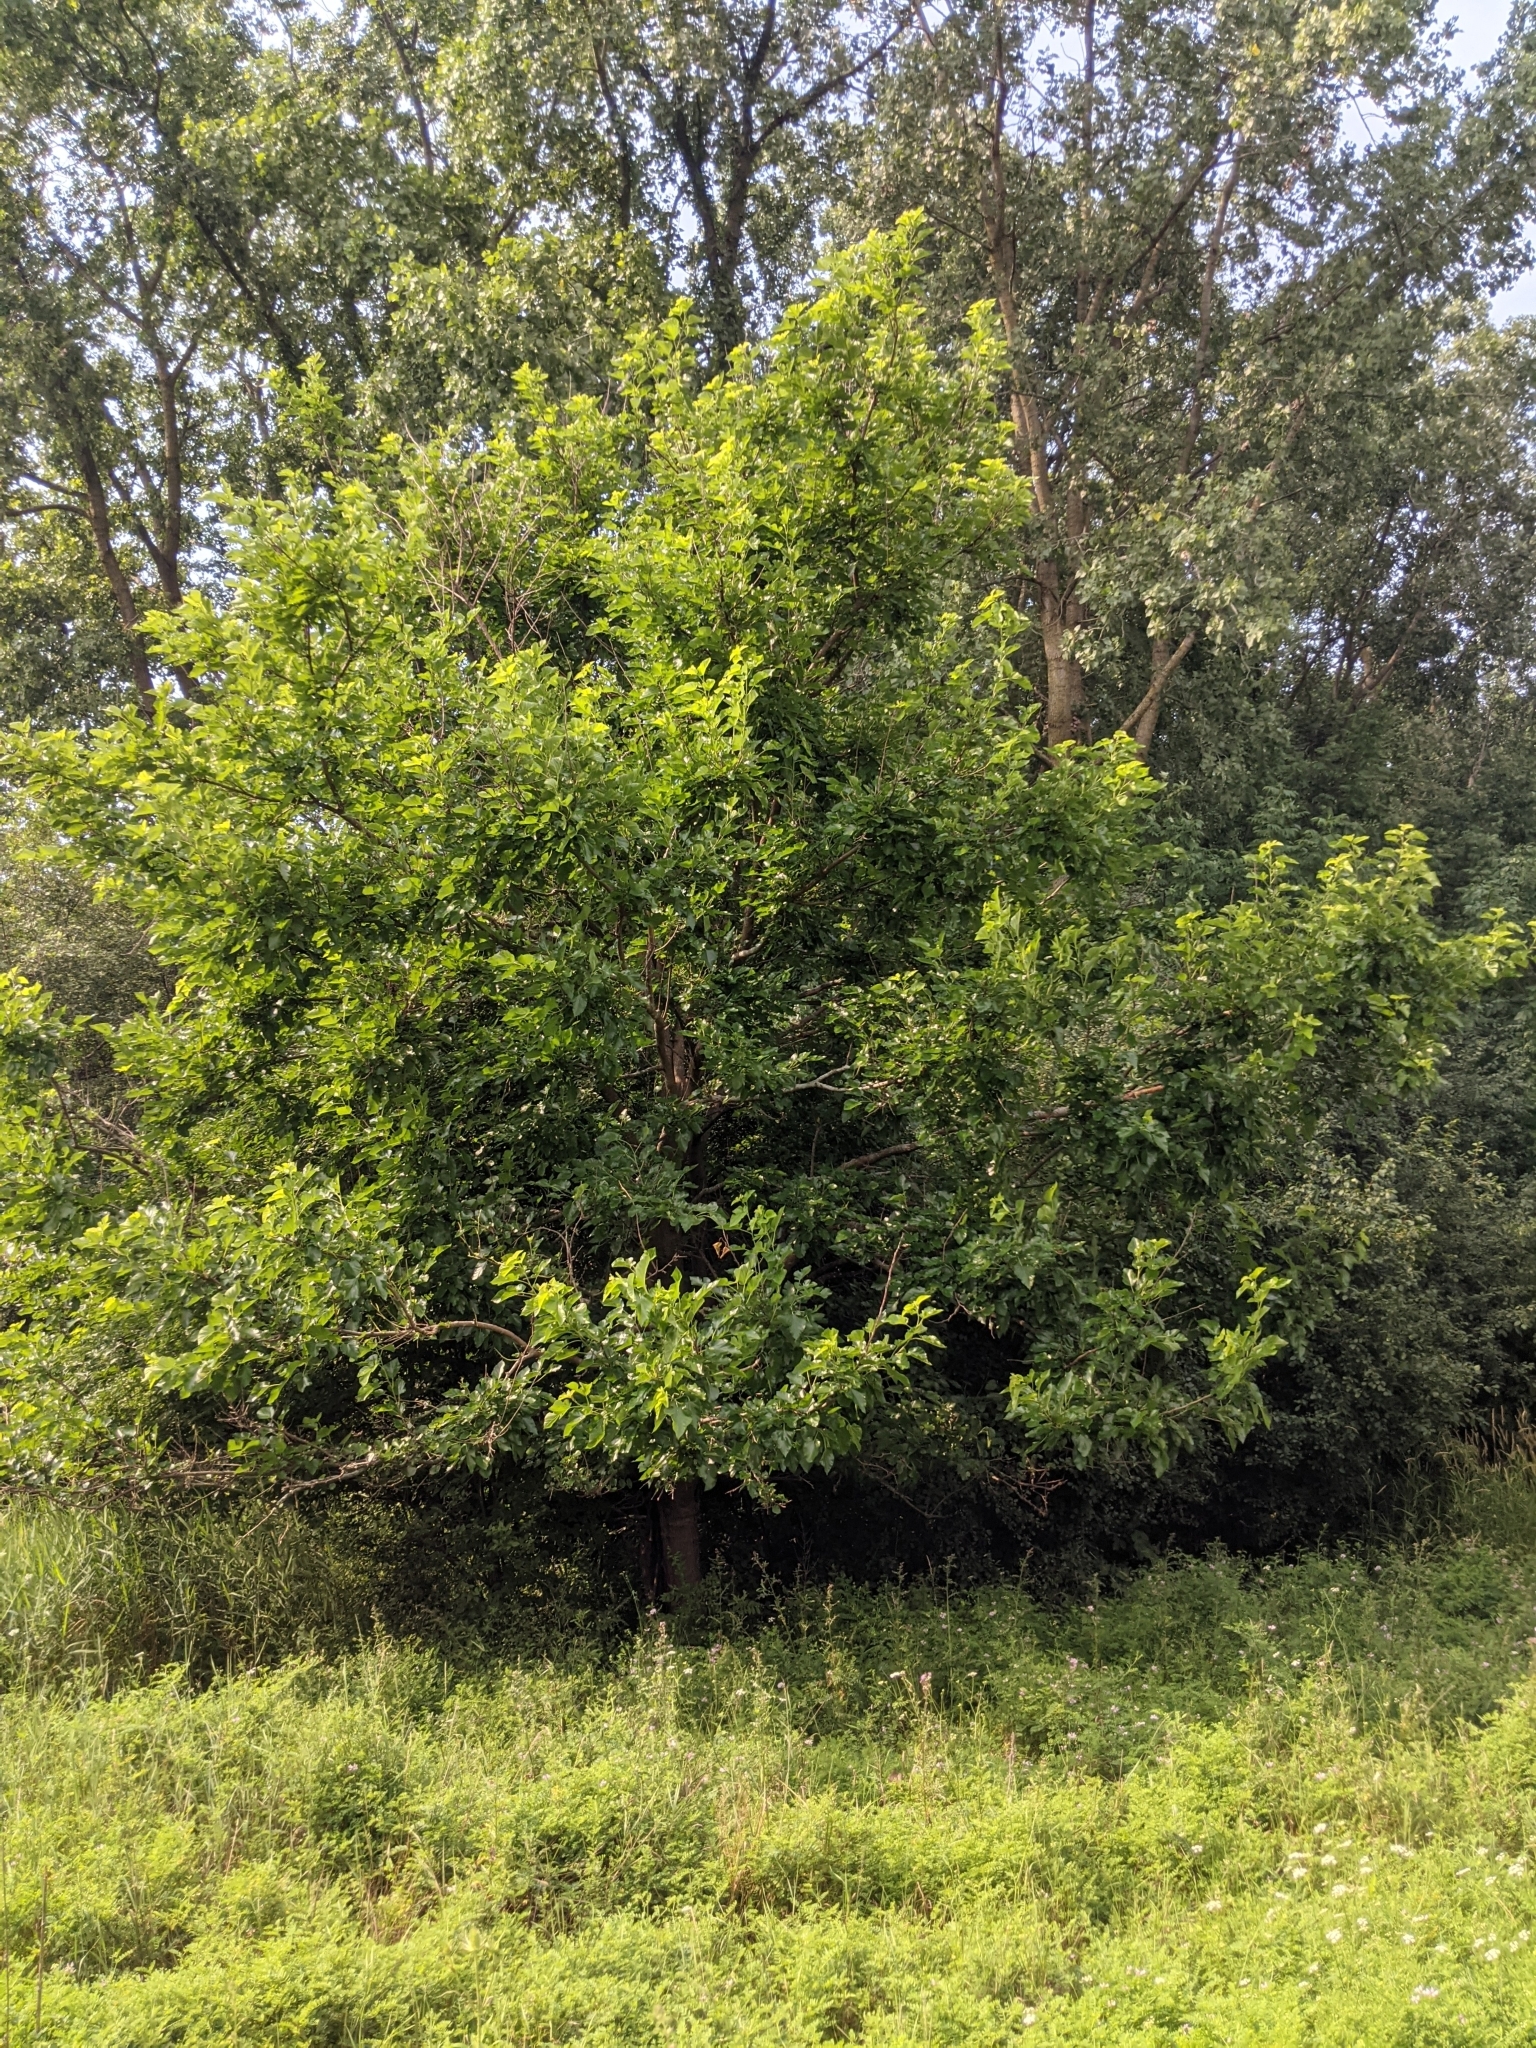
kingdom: Plantae
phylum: Tracheophyta
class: Magnoliopsida
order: Rosales
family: Moraceae
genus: Morus
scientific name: Morus alba
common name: White mulberry
